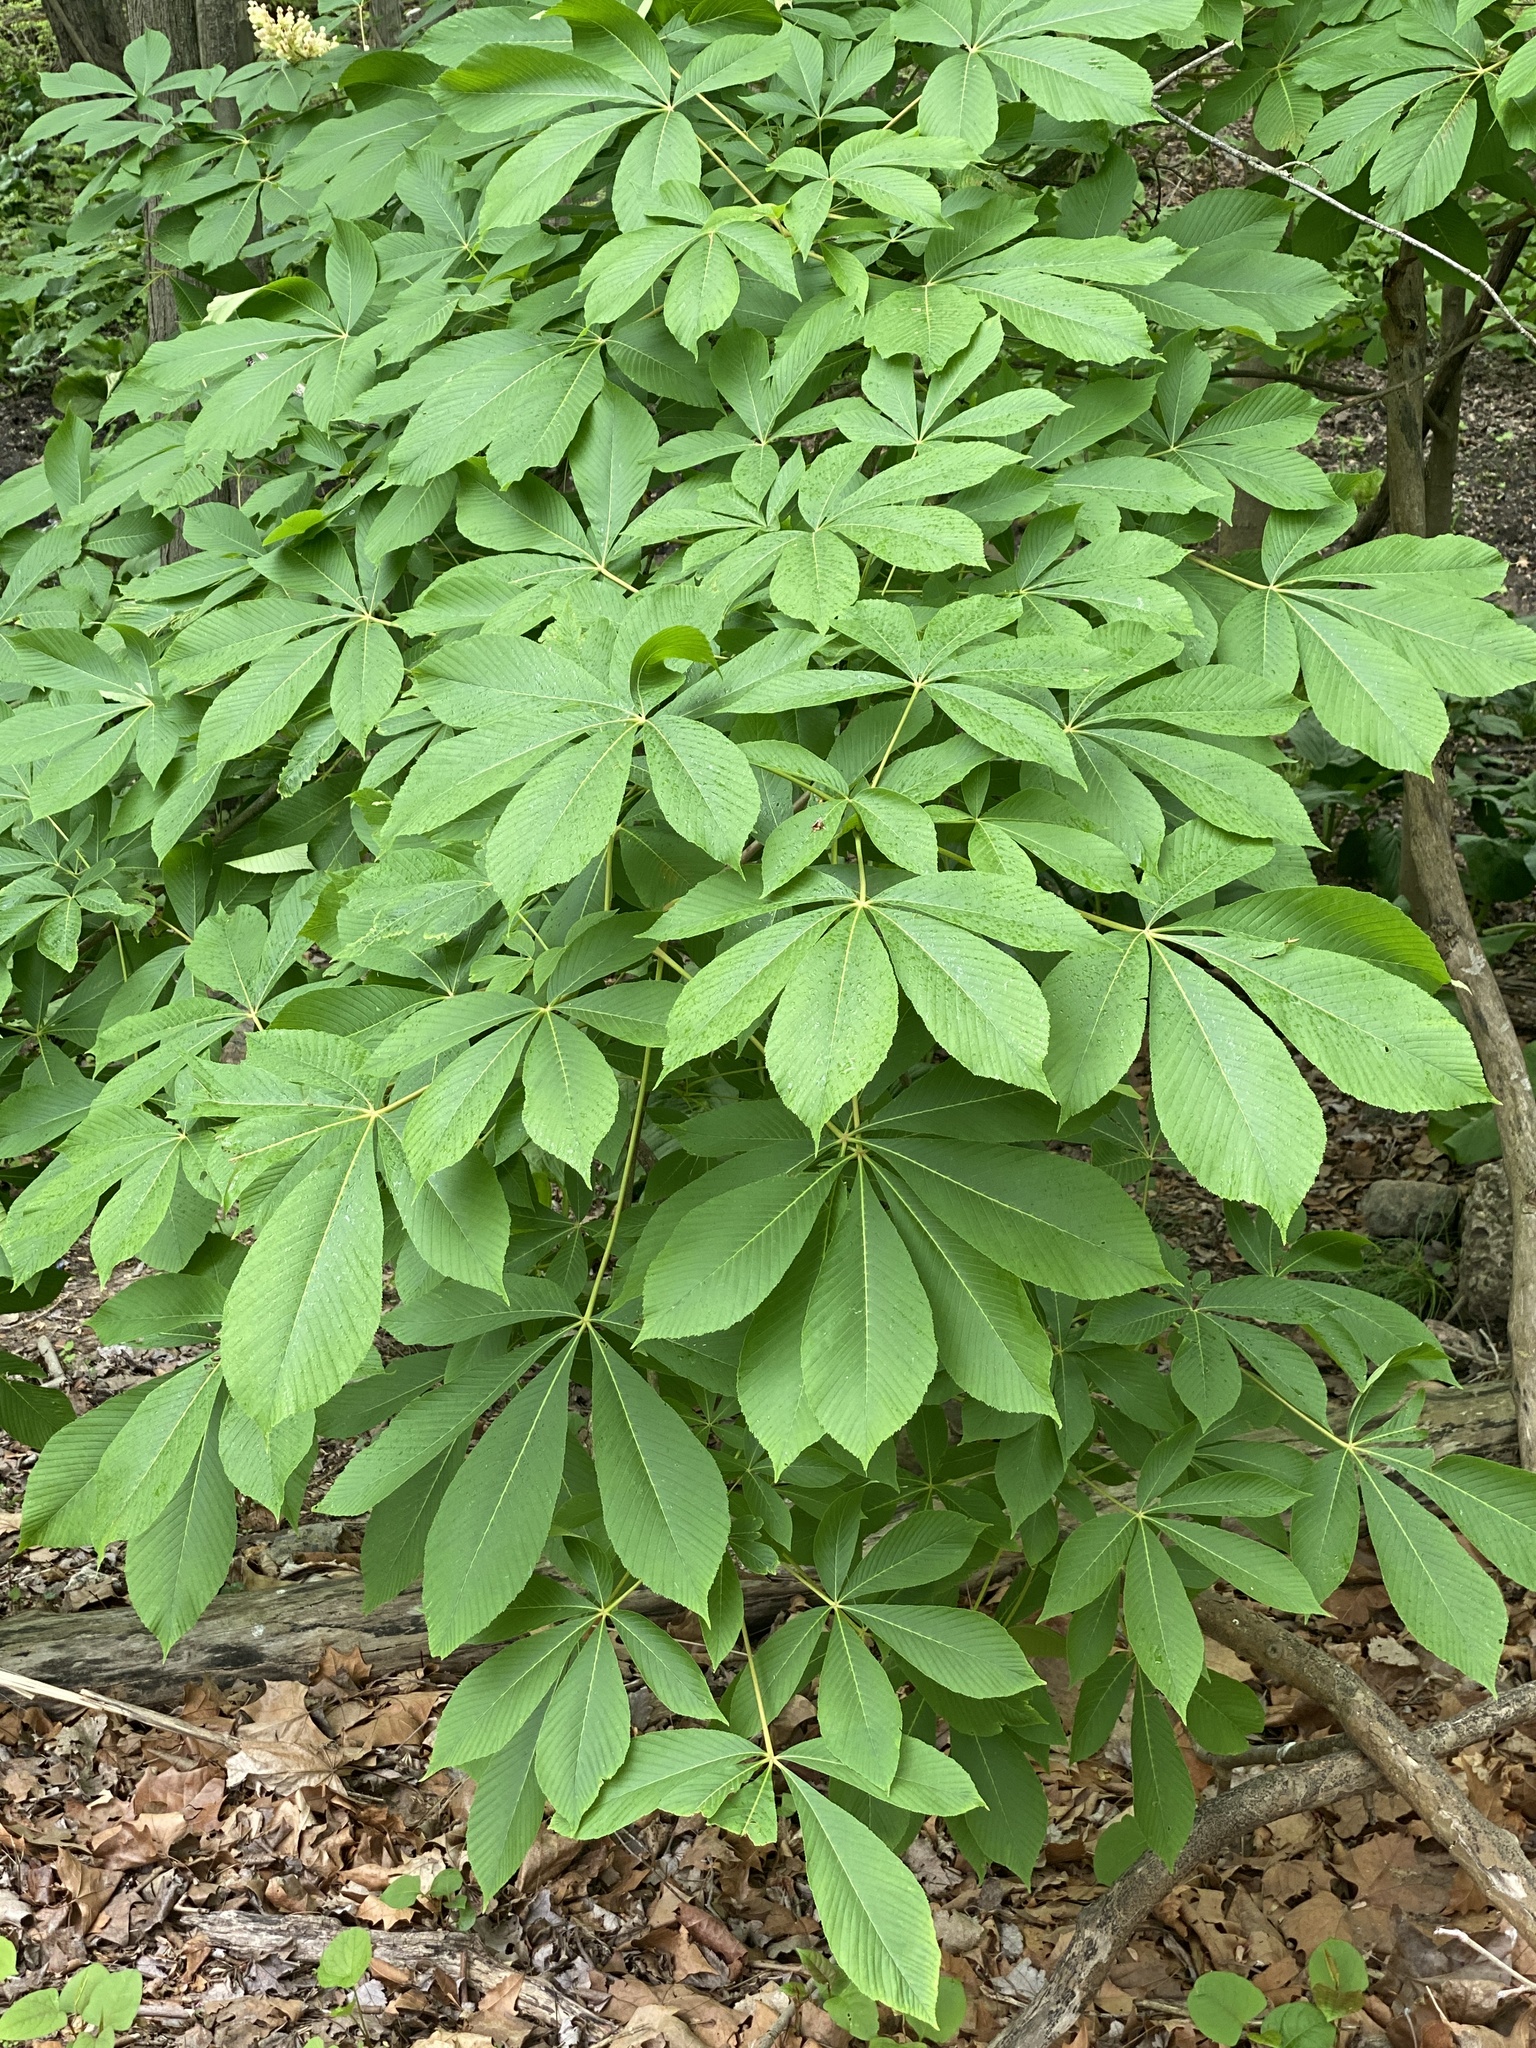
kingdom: Plantae
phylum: Tracheophyta
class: Magnoliopsida
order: Sapindales
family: Sapindaceae
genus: Aesculus
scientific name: Aesculus flava
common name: Yellow buckeye
